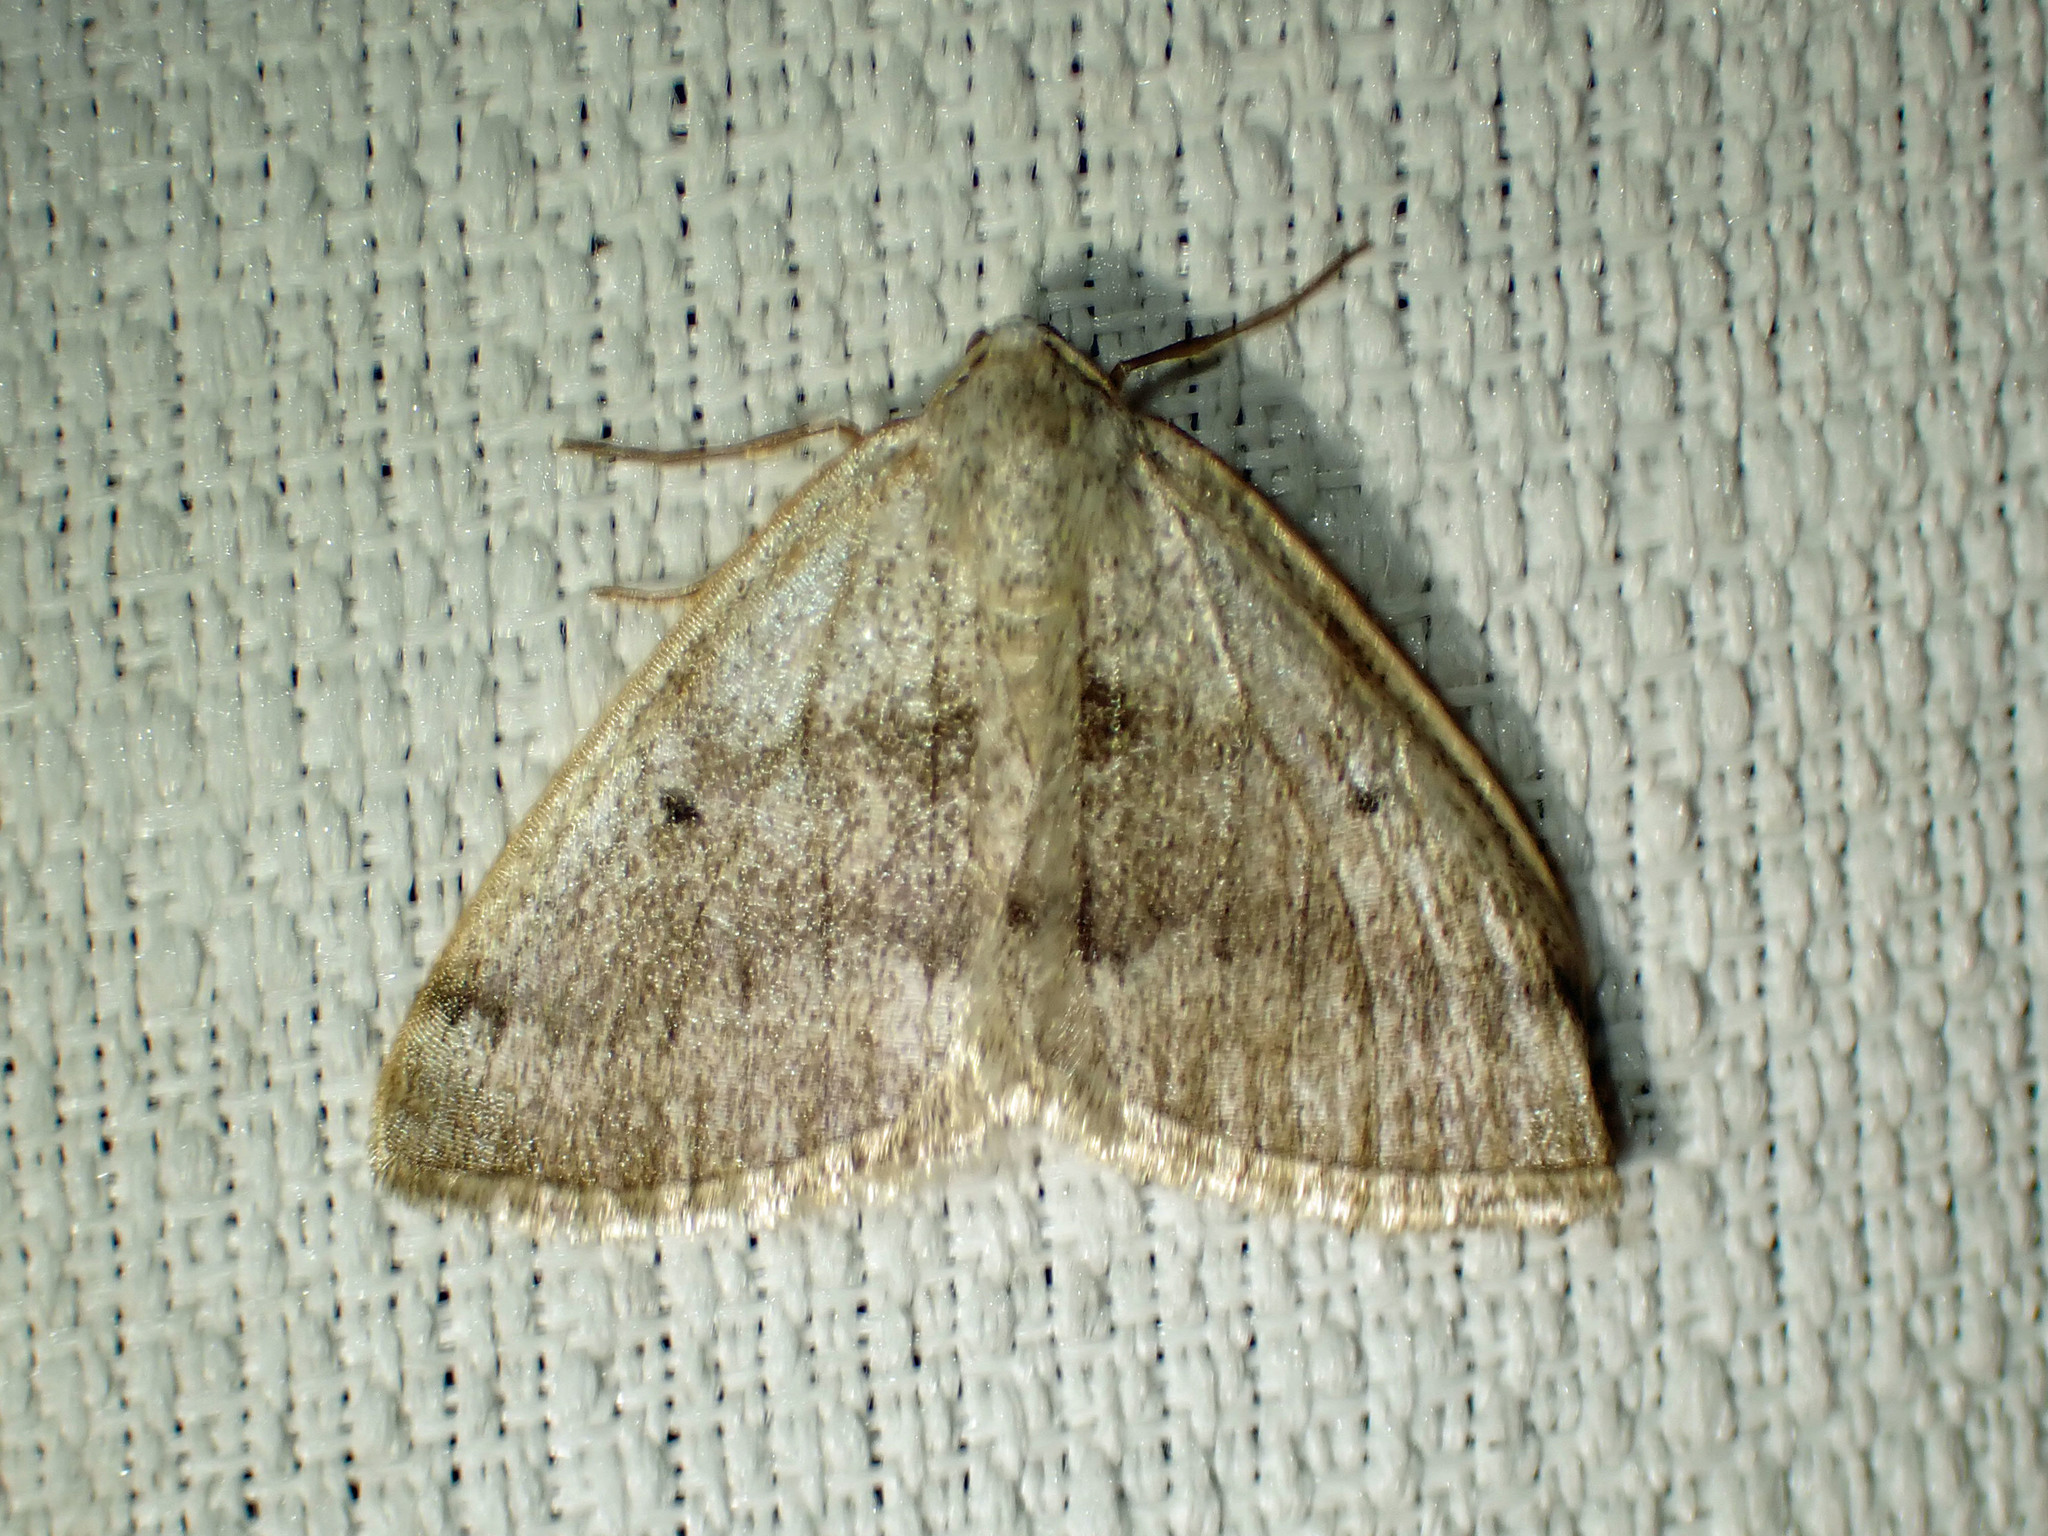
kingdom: Animalia
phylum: Arthropoda
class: Insecta
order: Lepidoptera
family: Geometridae
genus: Lomographa
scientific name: Lomographa glomeraria
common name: Gray spring moth
